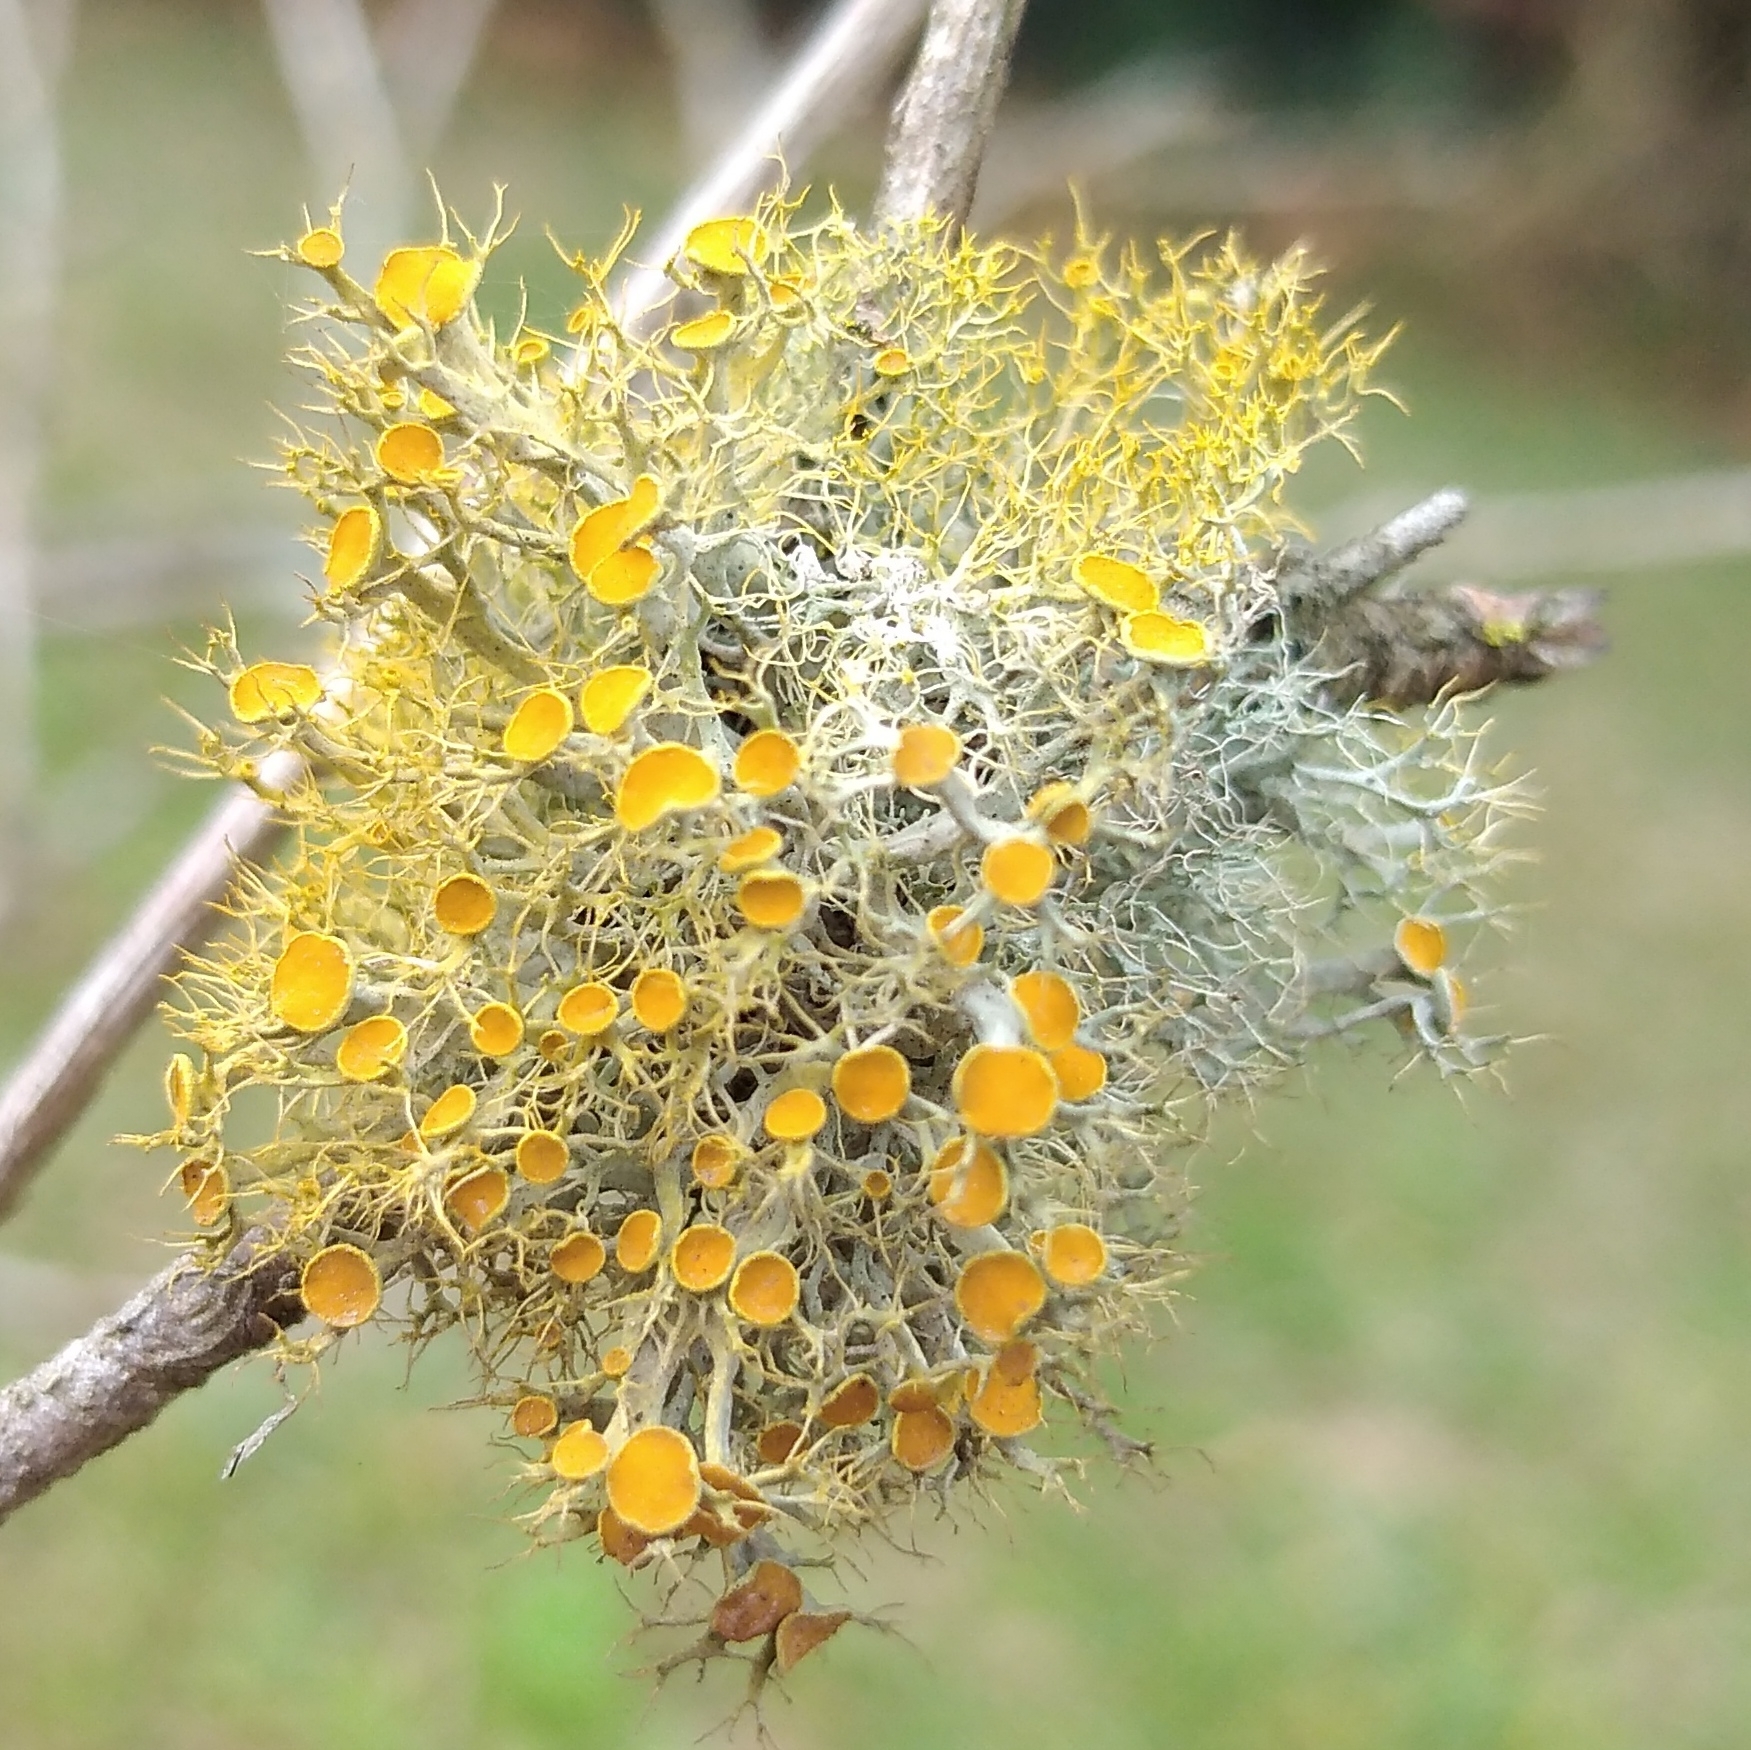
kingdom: Fungi
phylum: Ascomycota
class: Lecanoromycetes
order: Teloschistales
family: Teloschistaceae
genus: Teloschistes
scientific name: Teloschistes exilis
